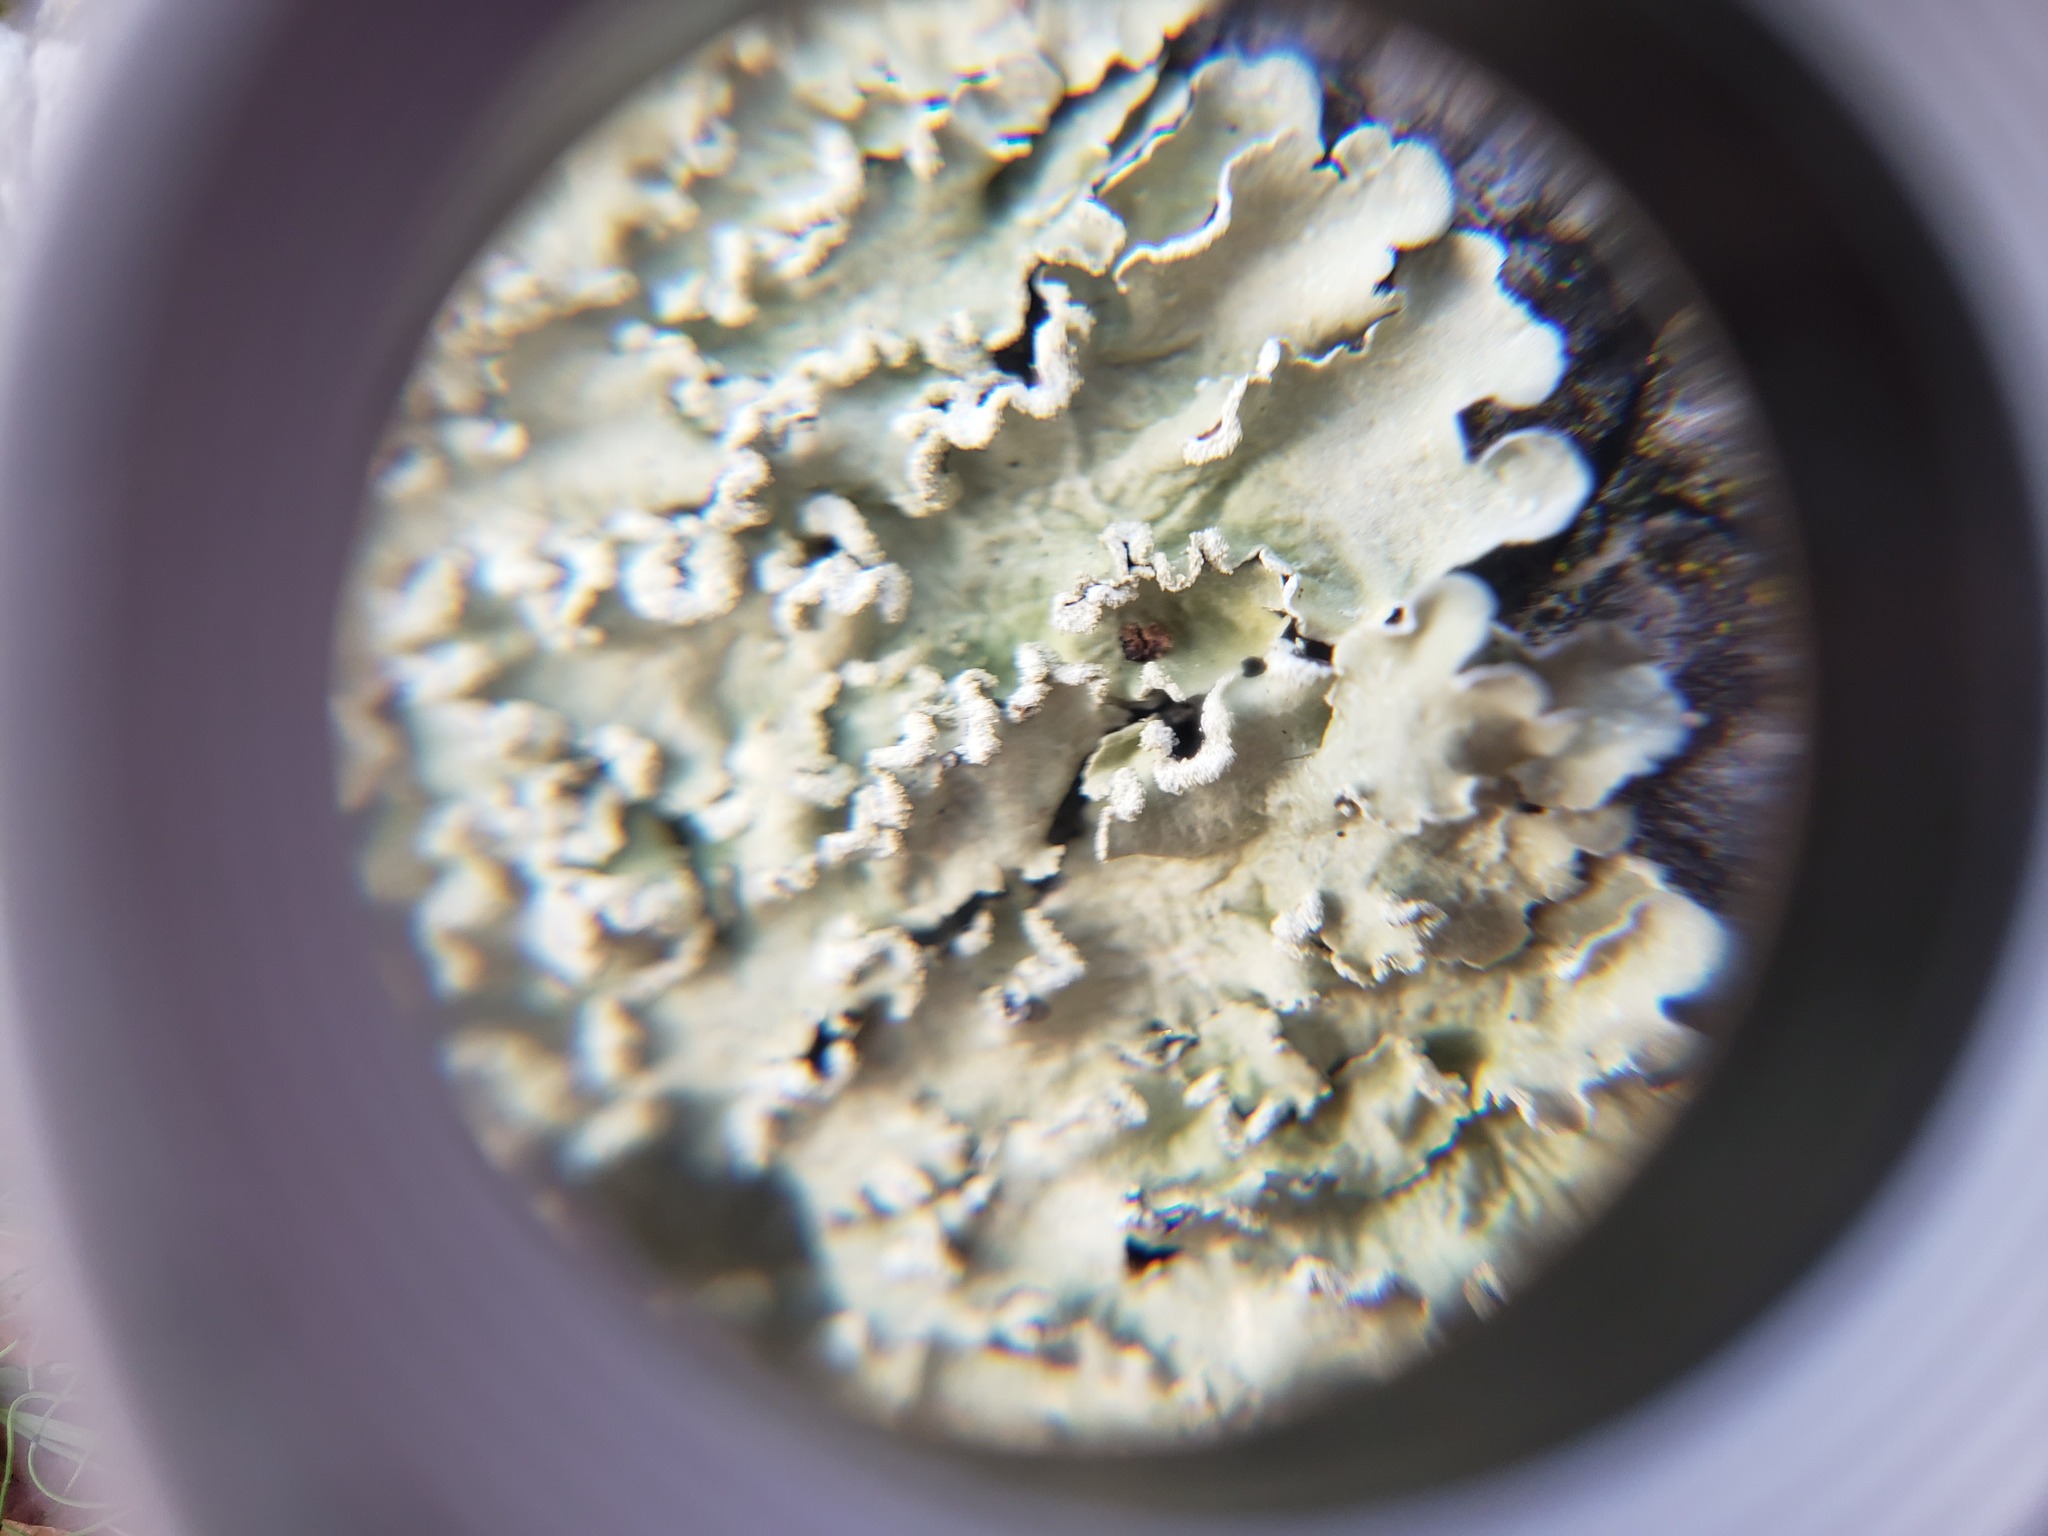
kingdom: Fungi
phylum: Ascomycota
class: Lecanoromycetes
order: Lecanorales
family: Parmeliaceae
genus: Flavopunctelia
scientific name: Flavopunctelia soredica
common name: Powder-edged speckled greenshield
